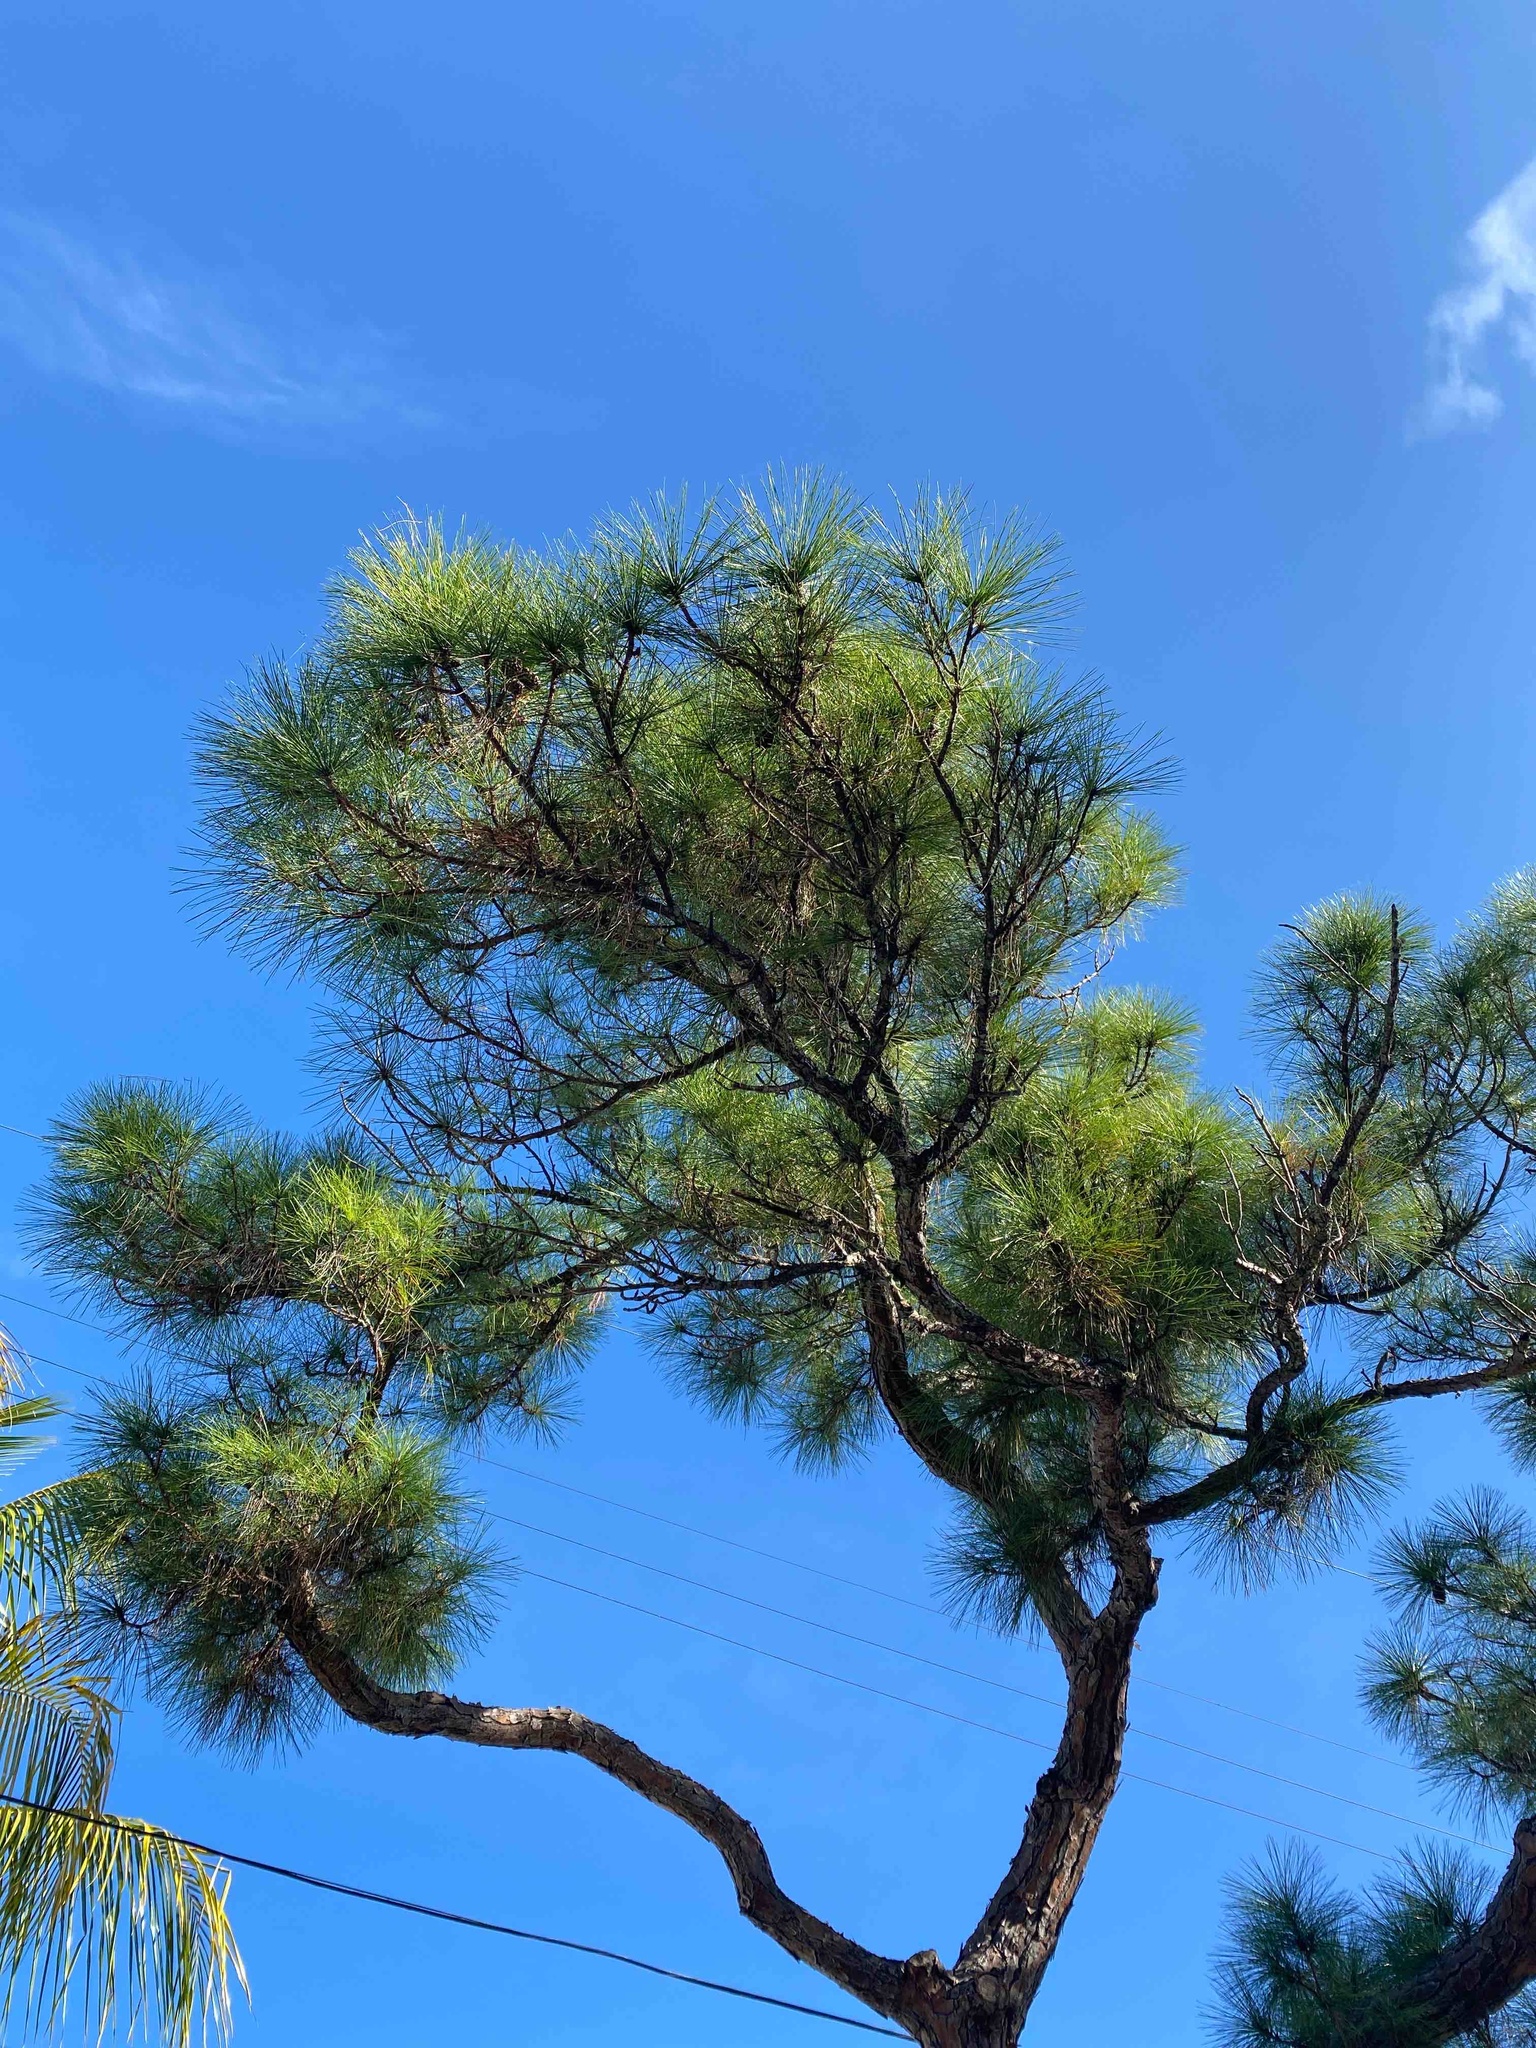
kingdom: Plantae
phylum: Tracheophyta
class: Pinopsida
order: Pinales
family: Pinaceae
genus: Pinus
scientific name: Pinus elliottii
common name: Slash pine
